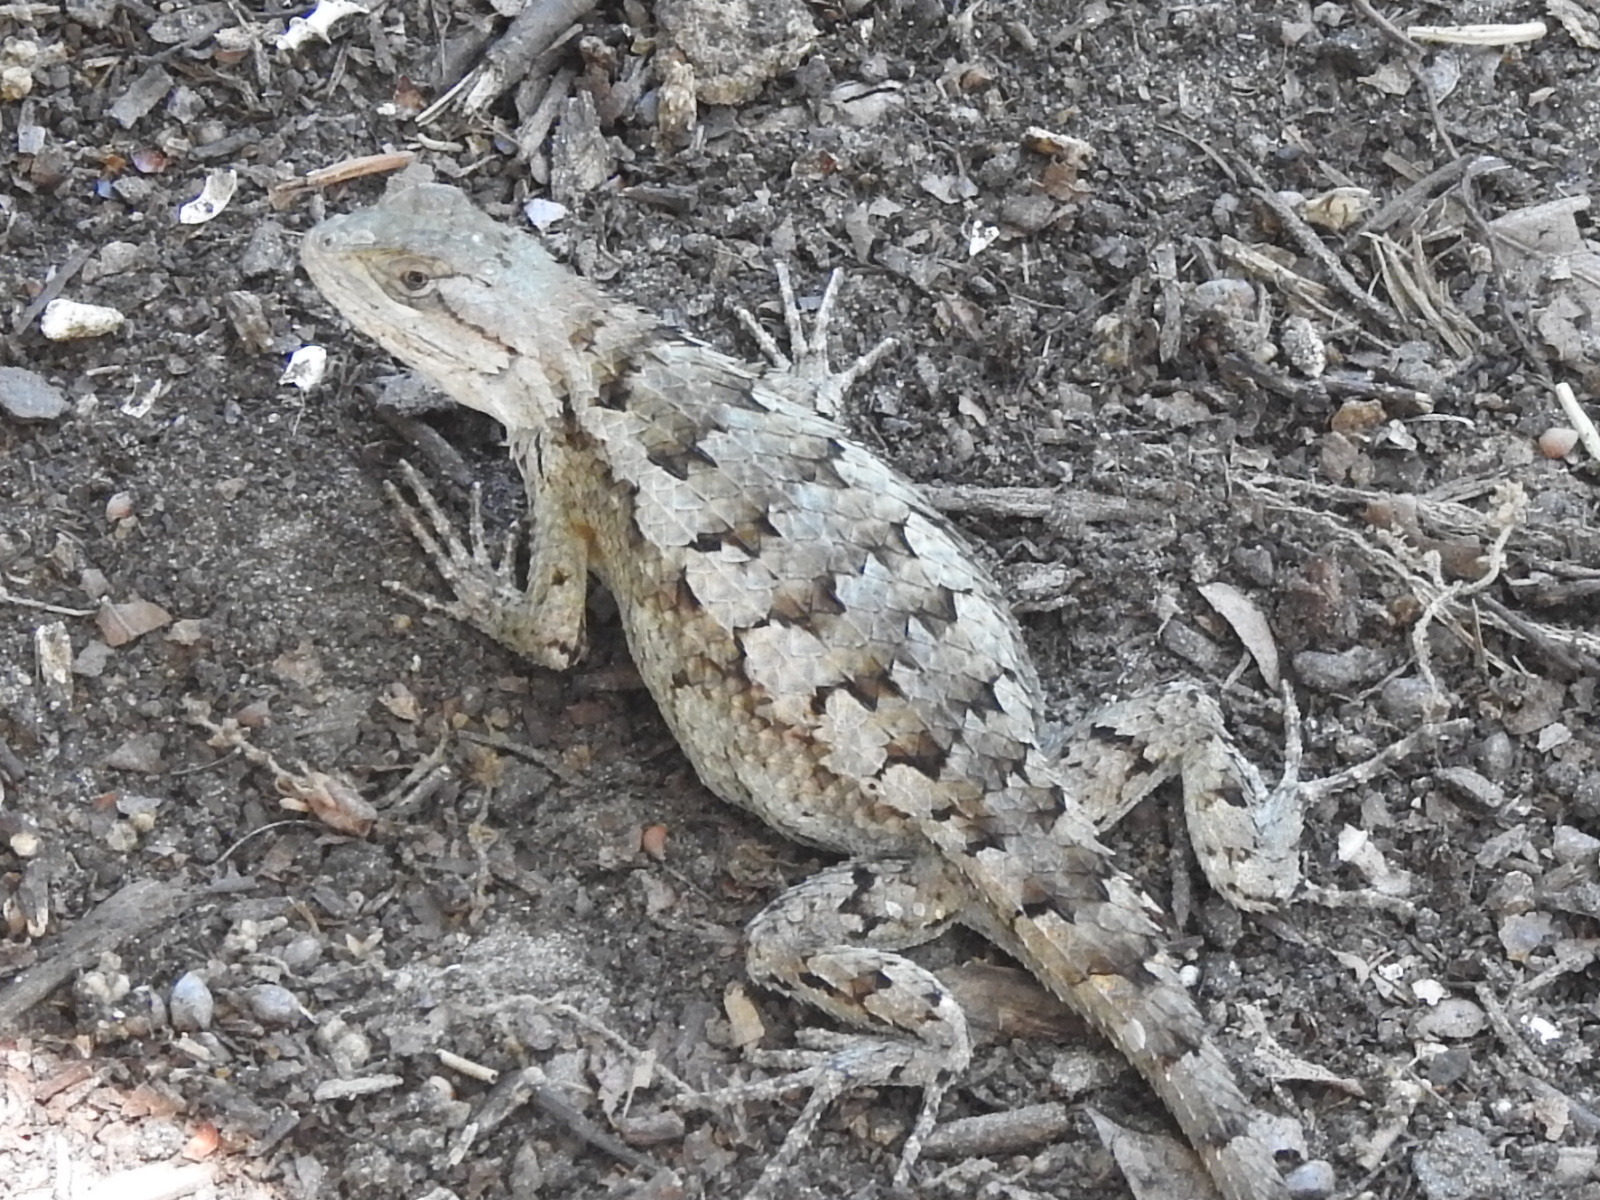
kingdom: Animalia
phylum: Chordata
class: Squamata
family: Phrynosomatidae
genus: Sceloporus
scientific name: Sceloporus olivaceus
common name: Texas spiny lizard
